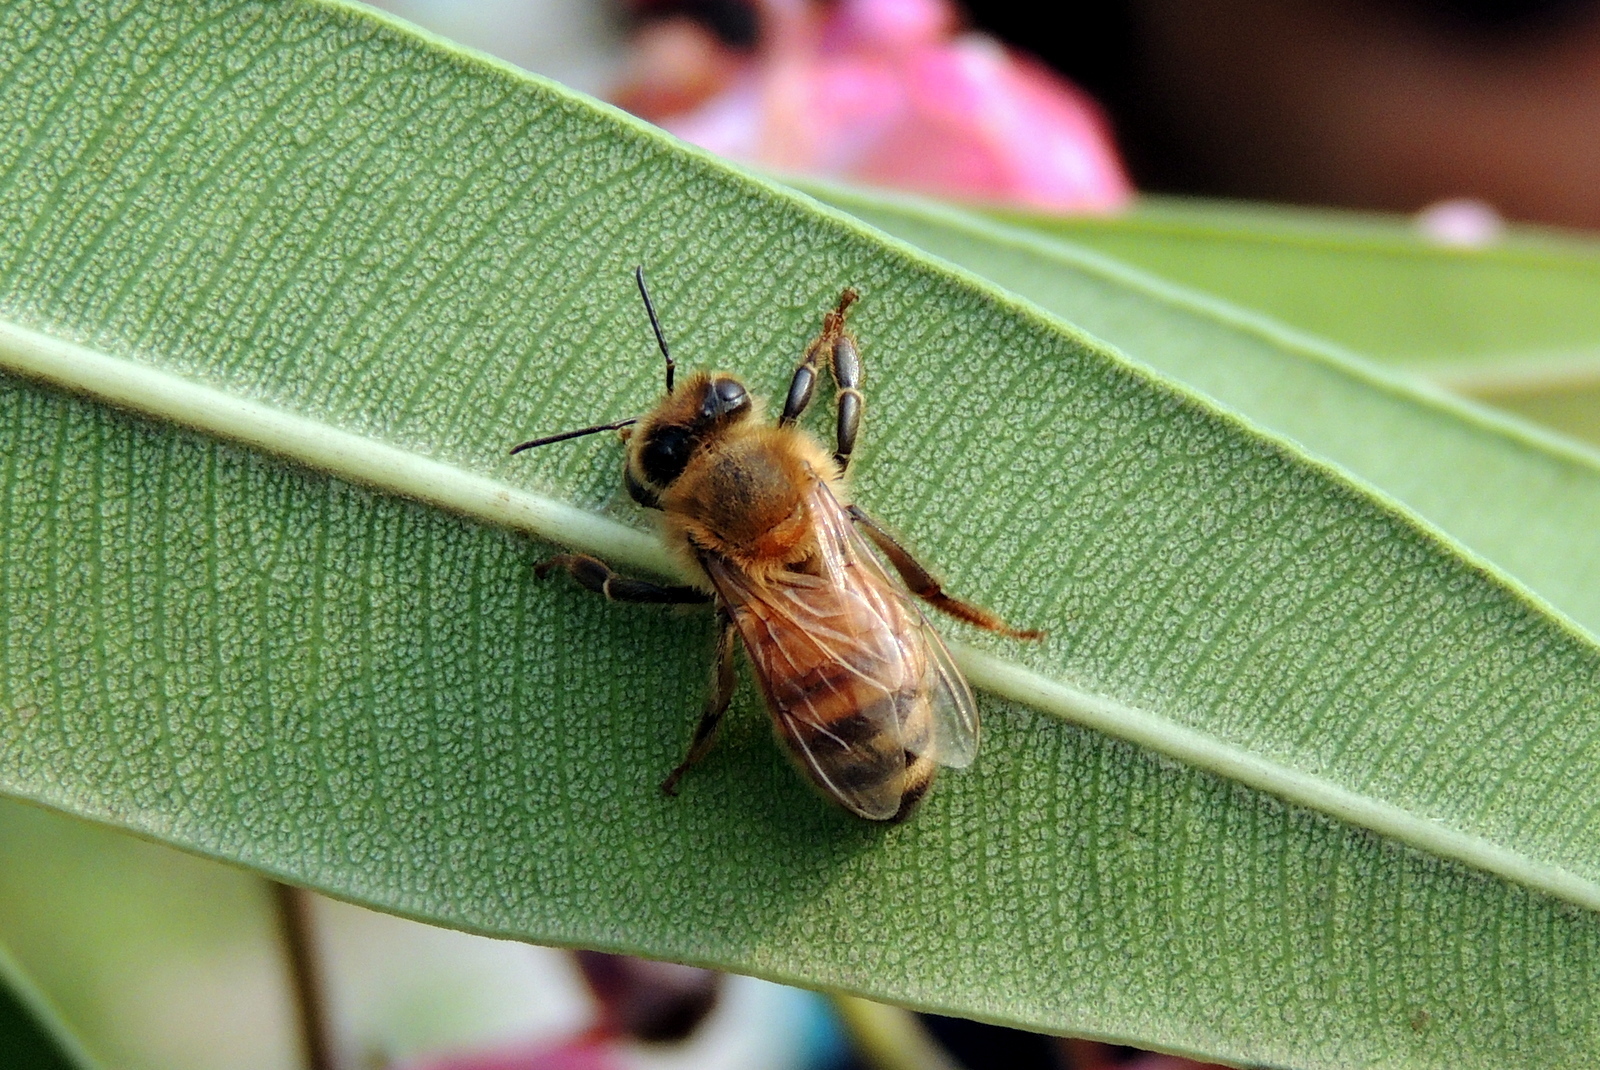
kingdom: Animalia
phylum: Arthropoda
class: Insecta
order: Hymenoptera
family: Apidae
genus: Apis
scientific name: Apis mellifera
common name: Honey bee
